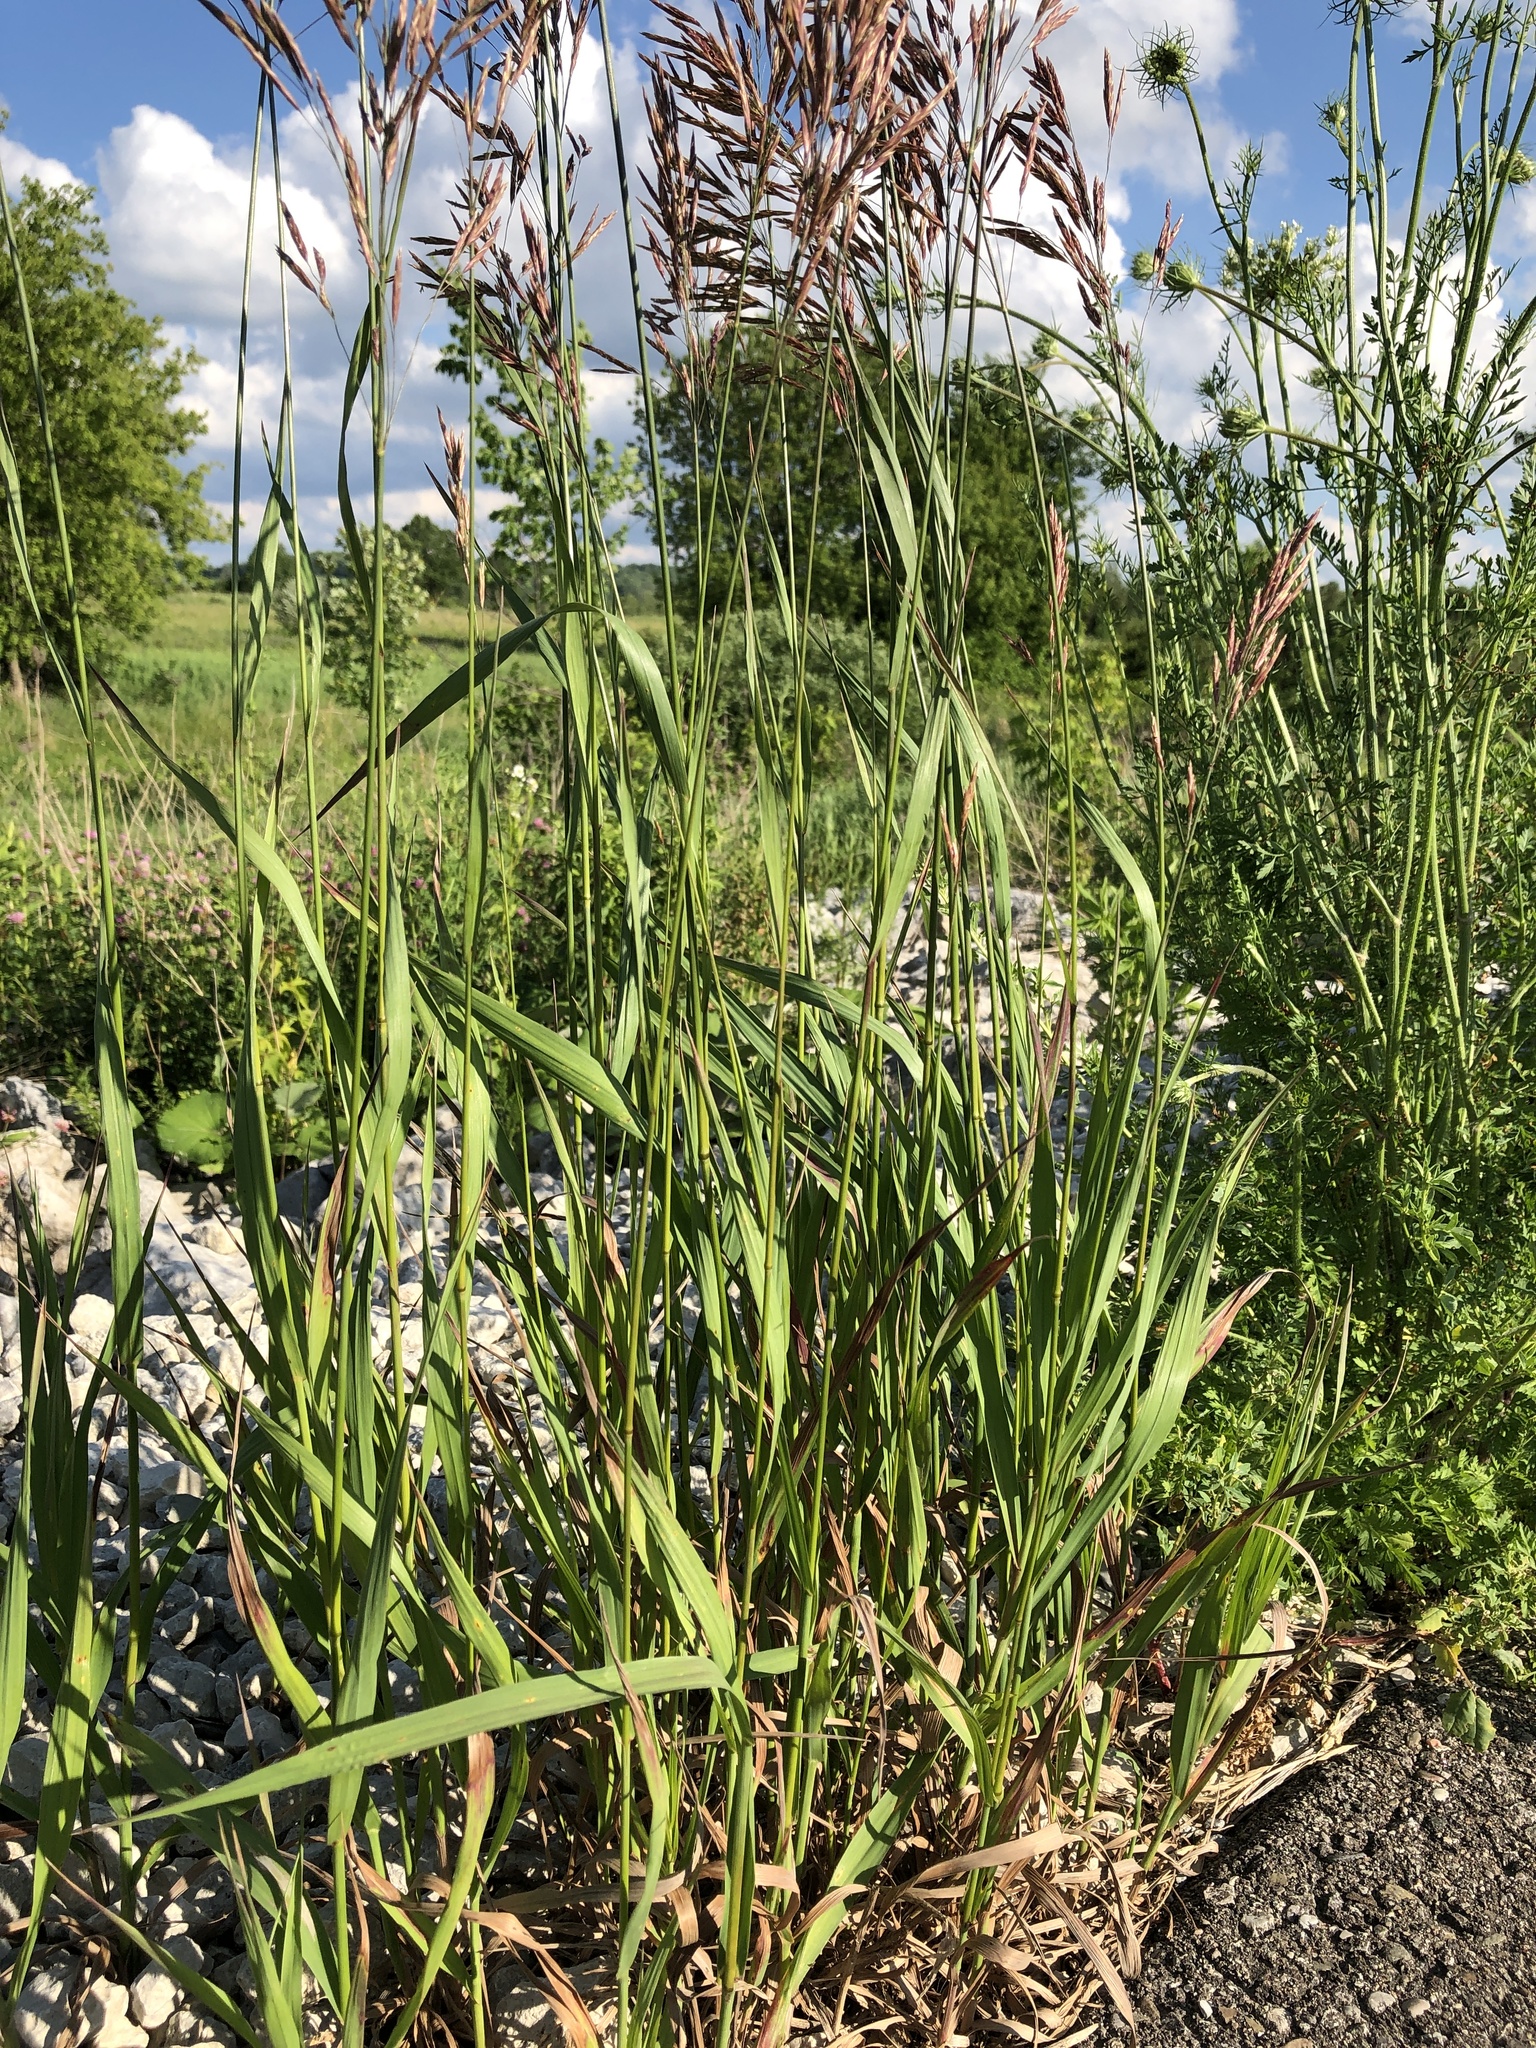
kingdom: Plantae
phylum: Tracheophyta
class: Liliopsida
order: Poales
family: Poaceae
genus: Bromus
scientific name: Bromus inermis
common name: Smooth brome
